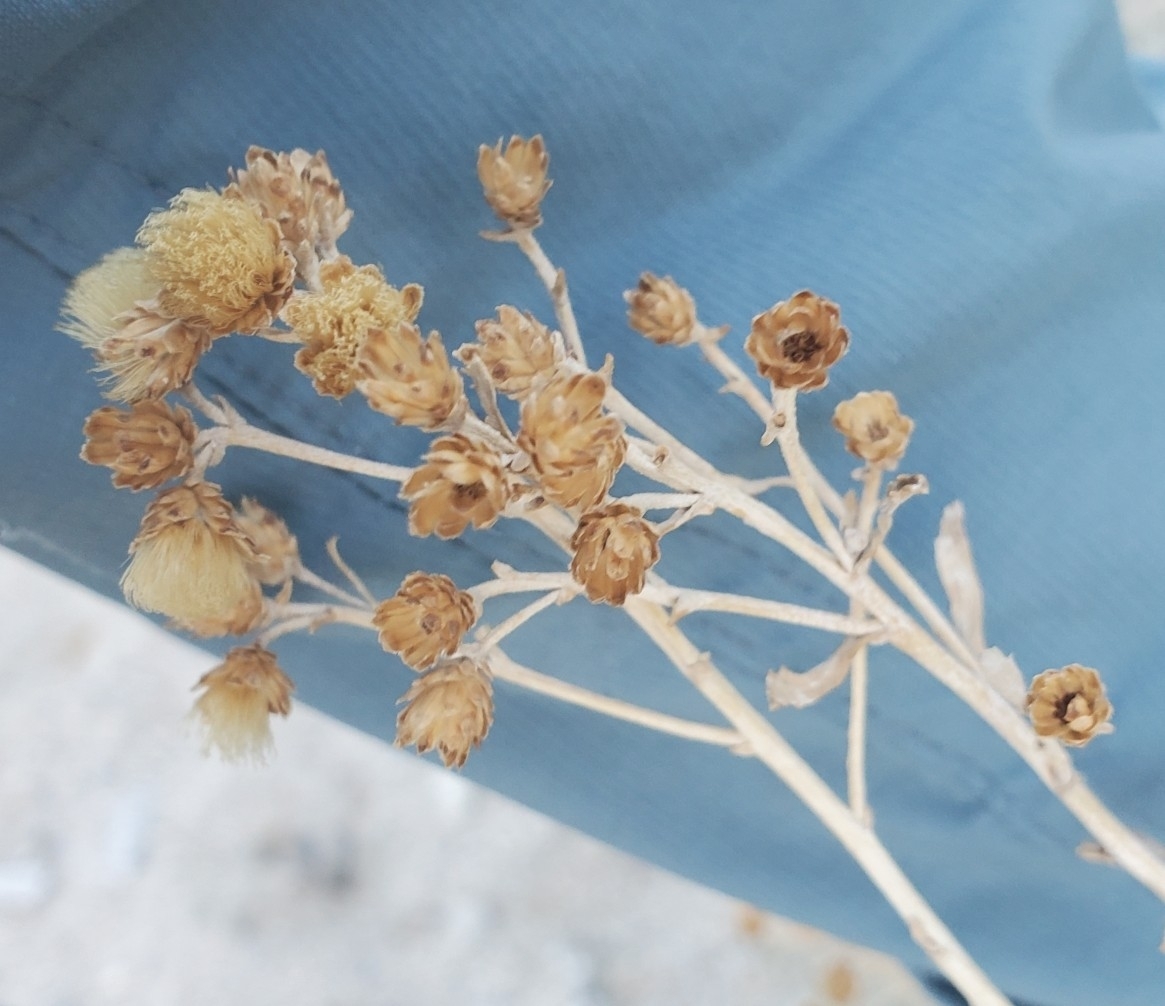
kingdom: Plantae
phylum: Tracheophyta
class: Magnoliopsida
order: Asterales
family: Asteraceae
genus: Isocoma
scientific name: Isocoma acradenia
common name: Alkali jimmyweed
